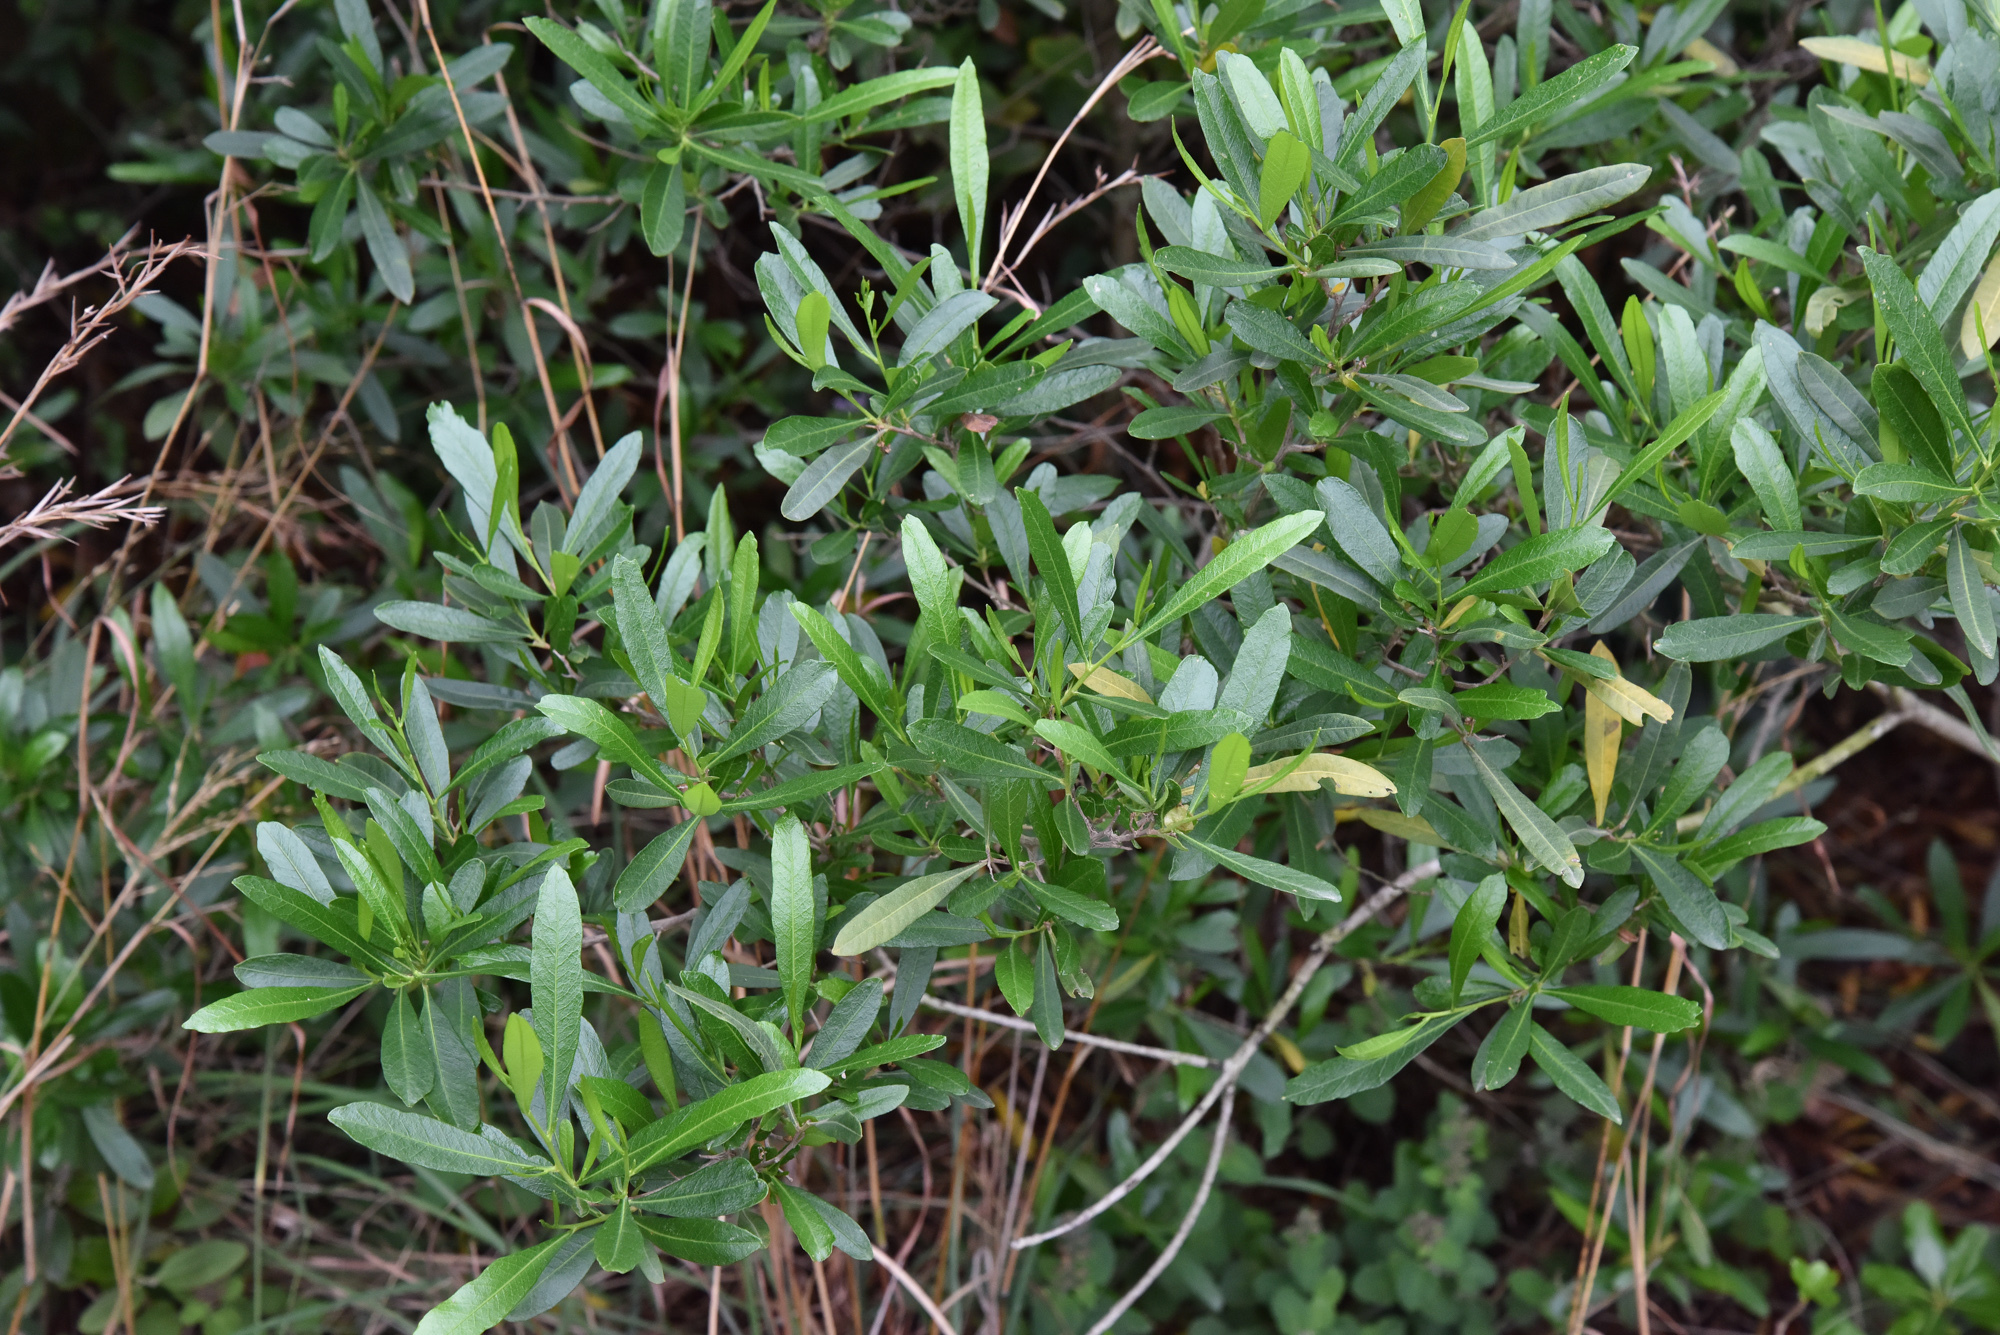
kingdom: Plantae
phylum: Tracheophyta
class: Magnoliopsida
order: Sapindales
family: Sapindaceae
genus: Dodonaea
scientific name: Dodonaea viscosa
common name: Hopbush
